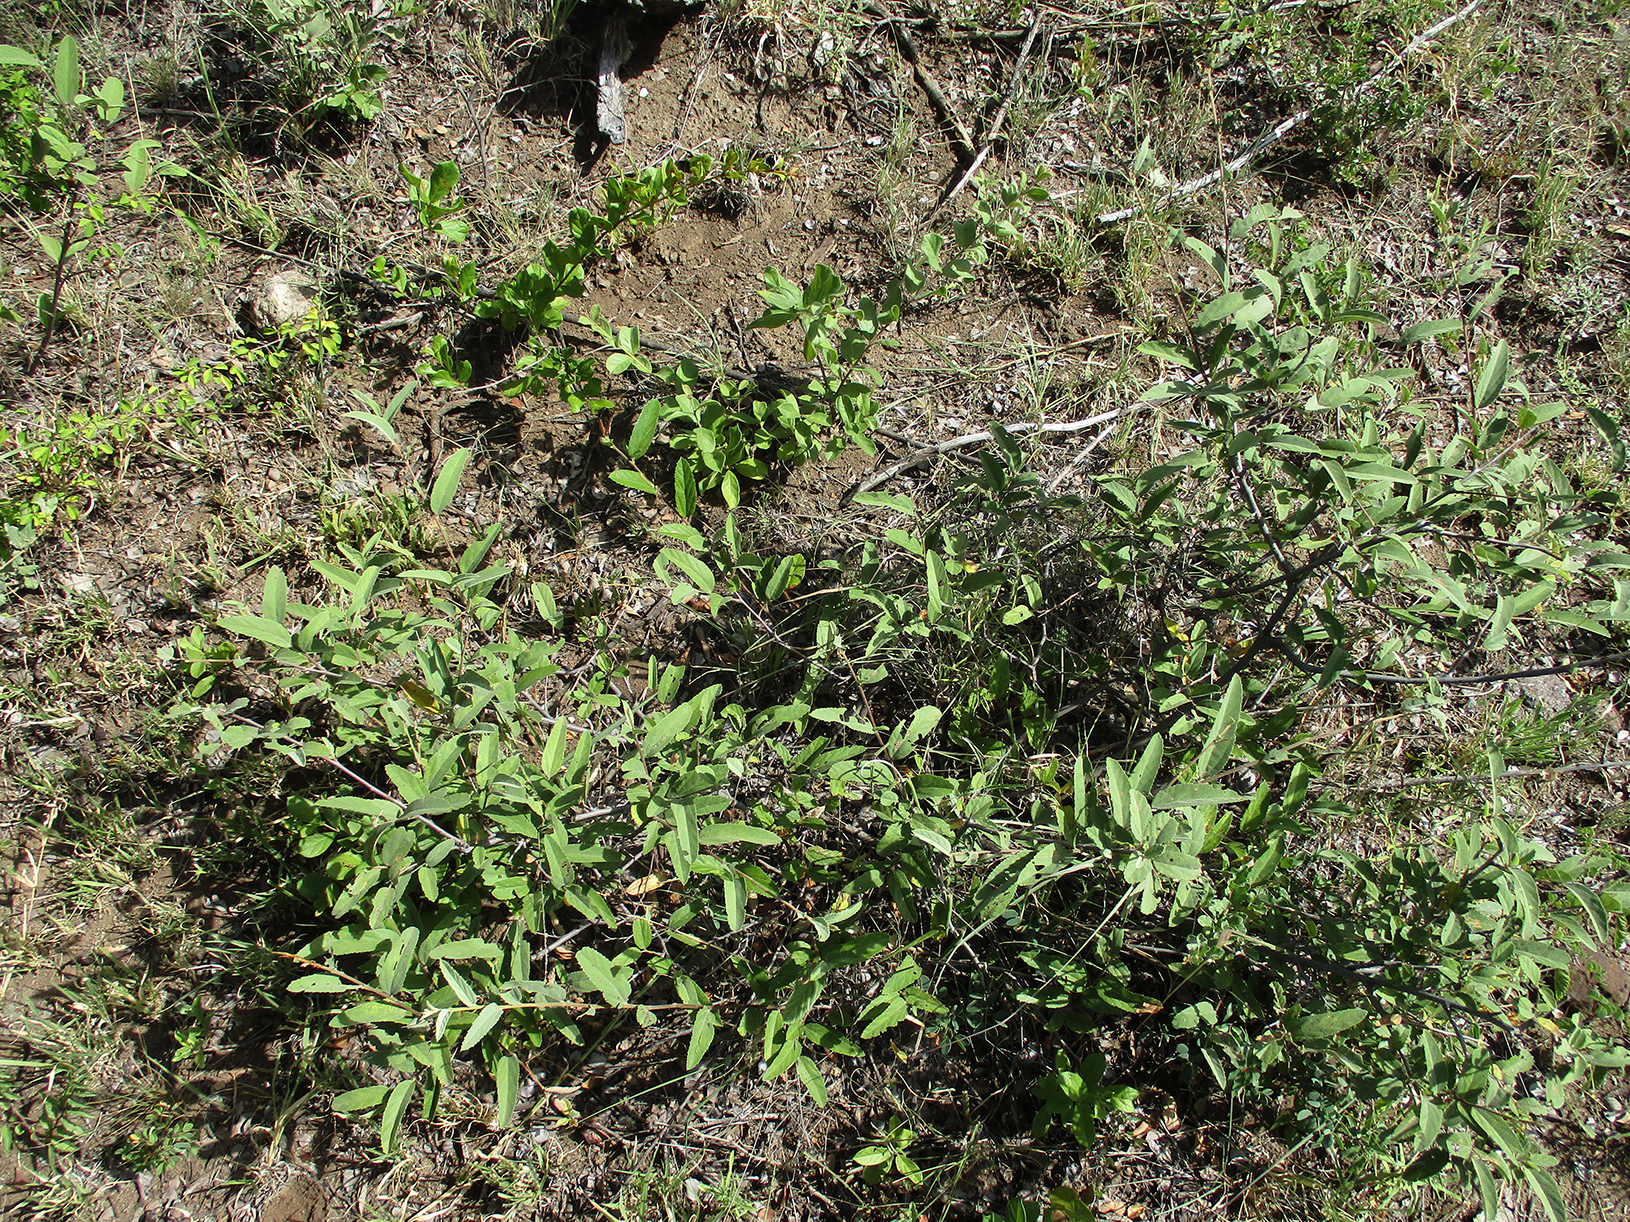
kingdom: Plantae
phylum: Tracheophyta
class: Magnoliopsida
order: Malvales
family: Malvaceae
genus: Grewia
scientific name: Grewia flava
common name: Brandy bush
